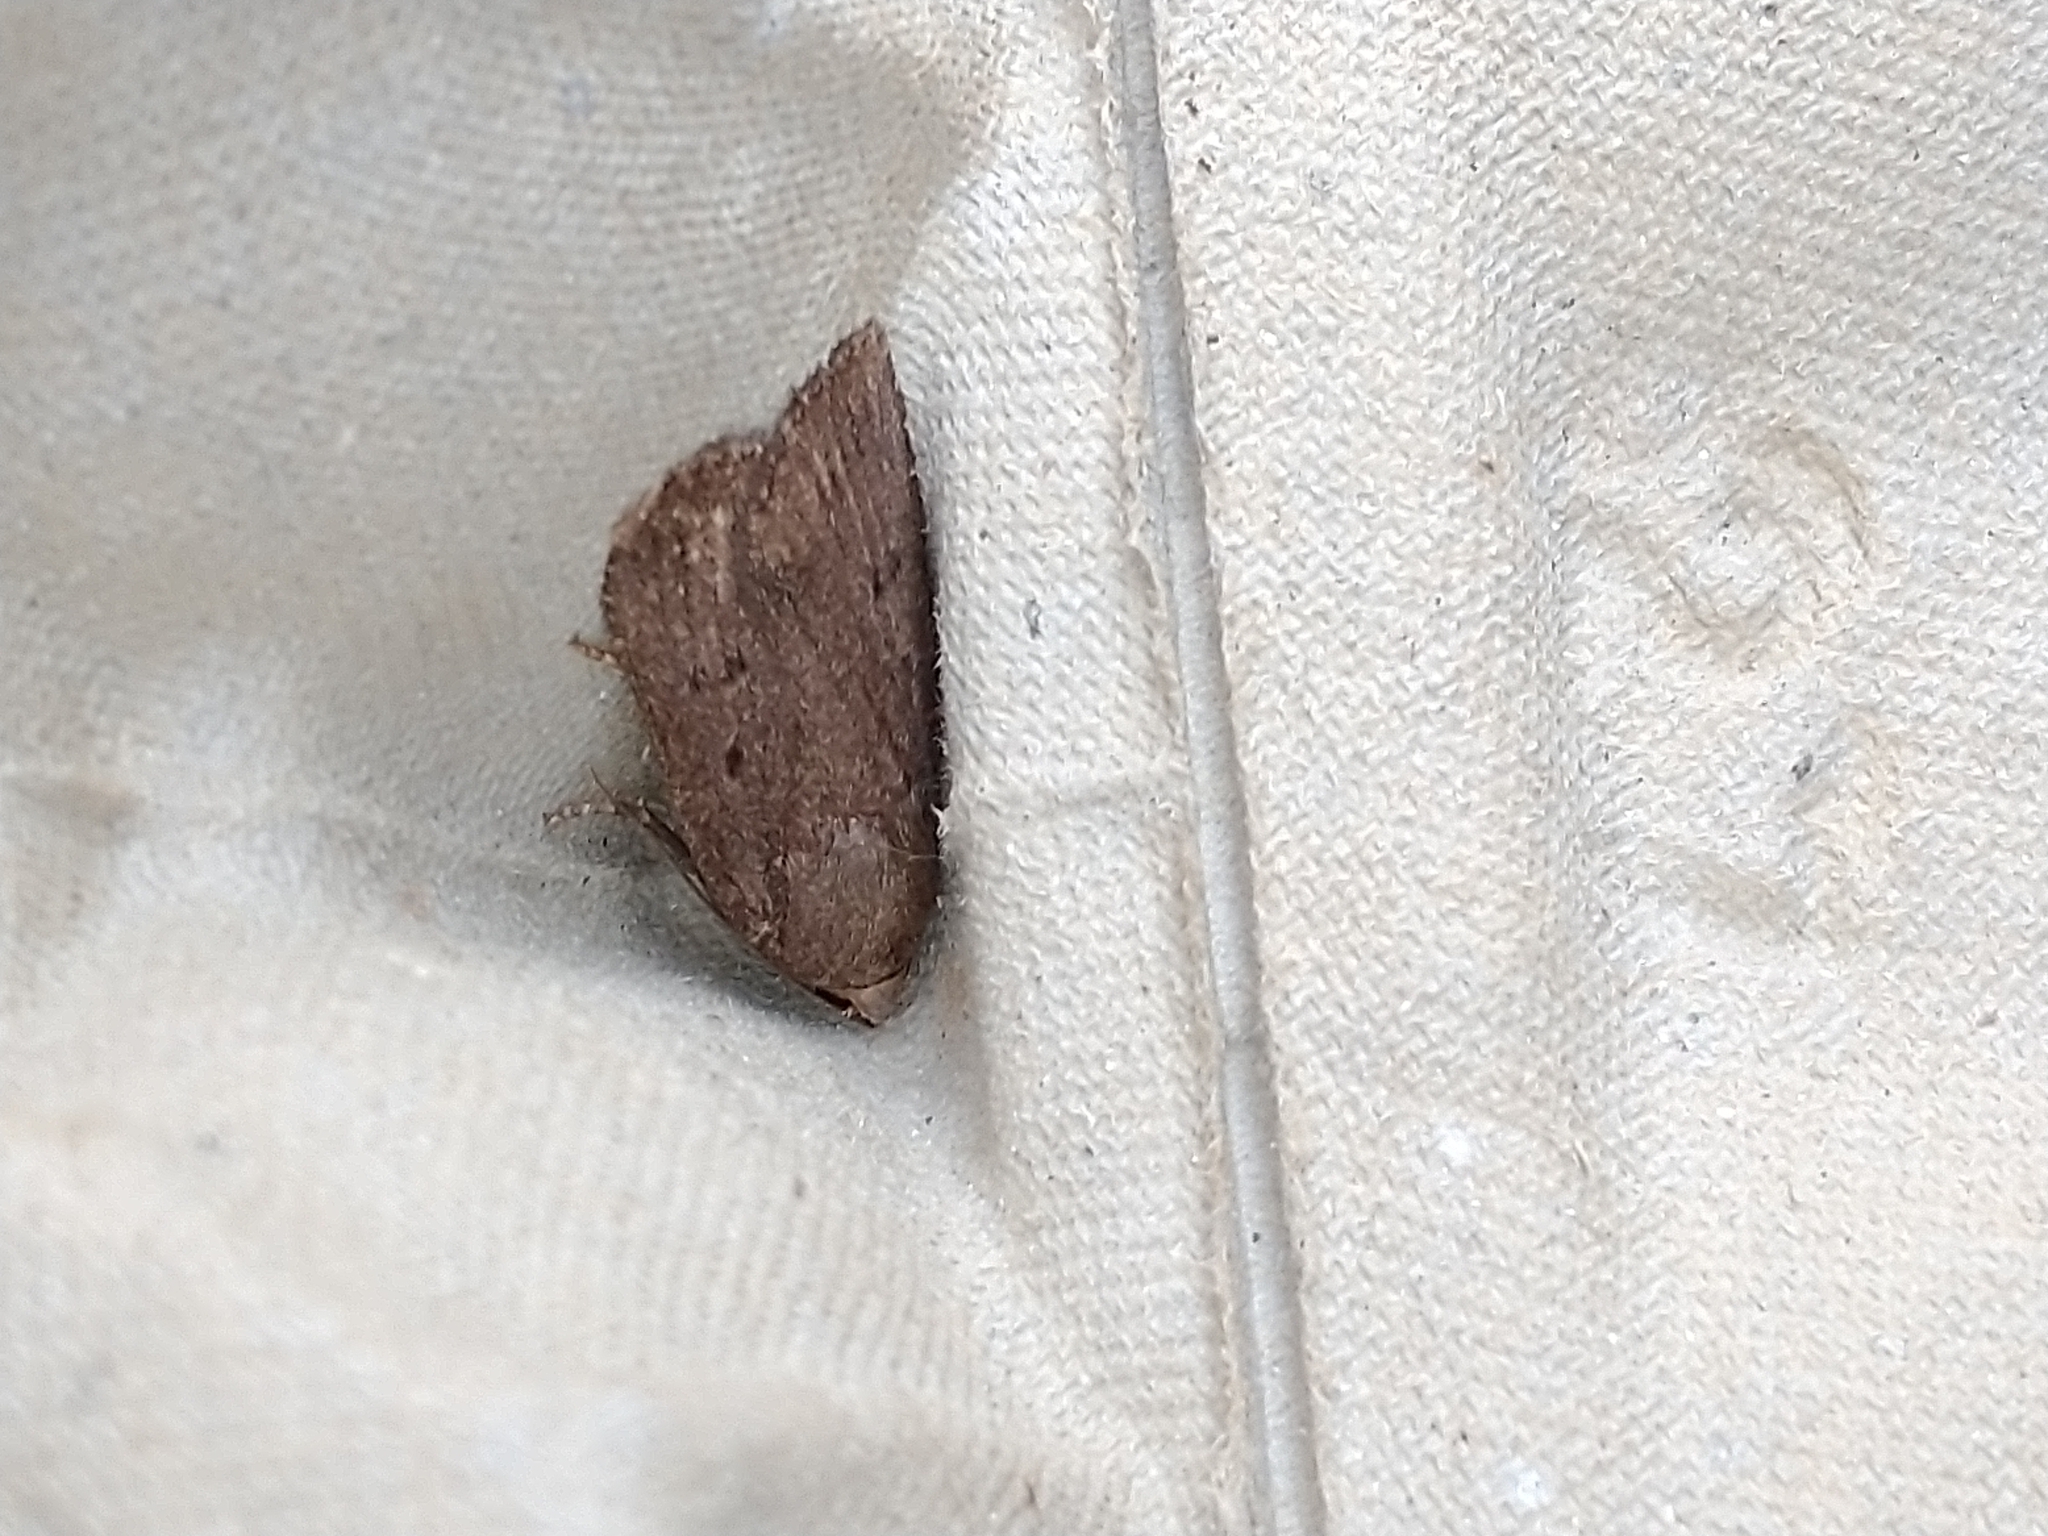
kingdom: Animalia
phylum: Arthropoda
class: Insecta
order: Lepidoptera
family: Noctuidae
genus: Amphipyra
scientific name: Amphipyra tragopoginis
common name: Mouse moth
